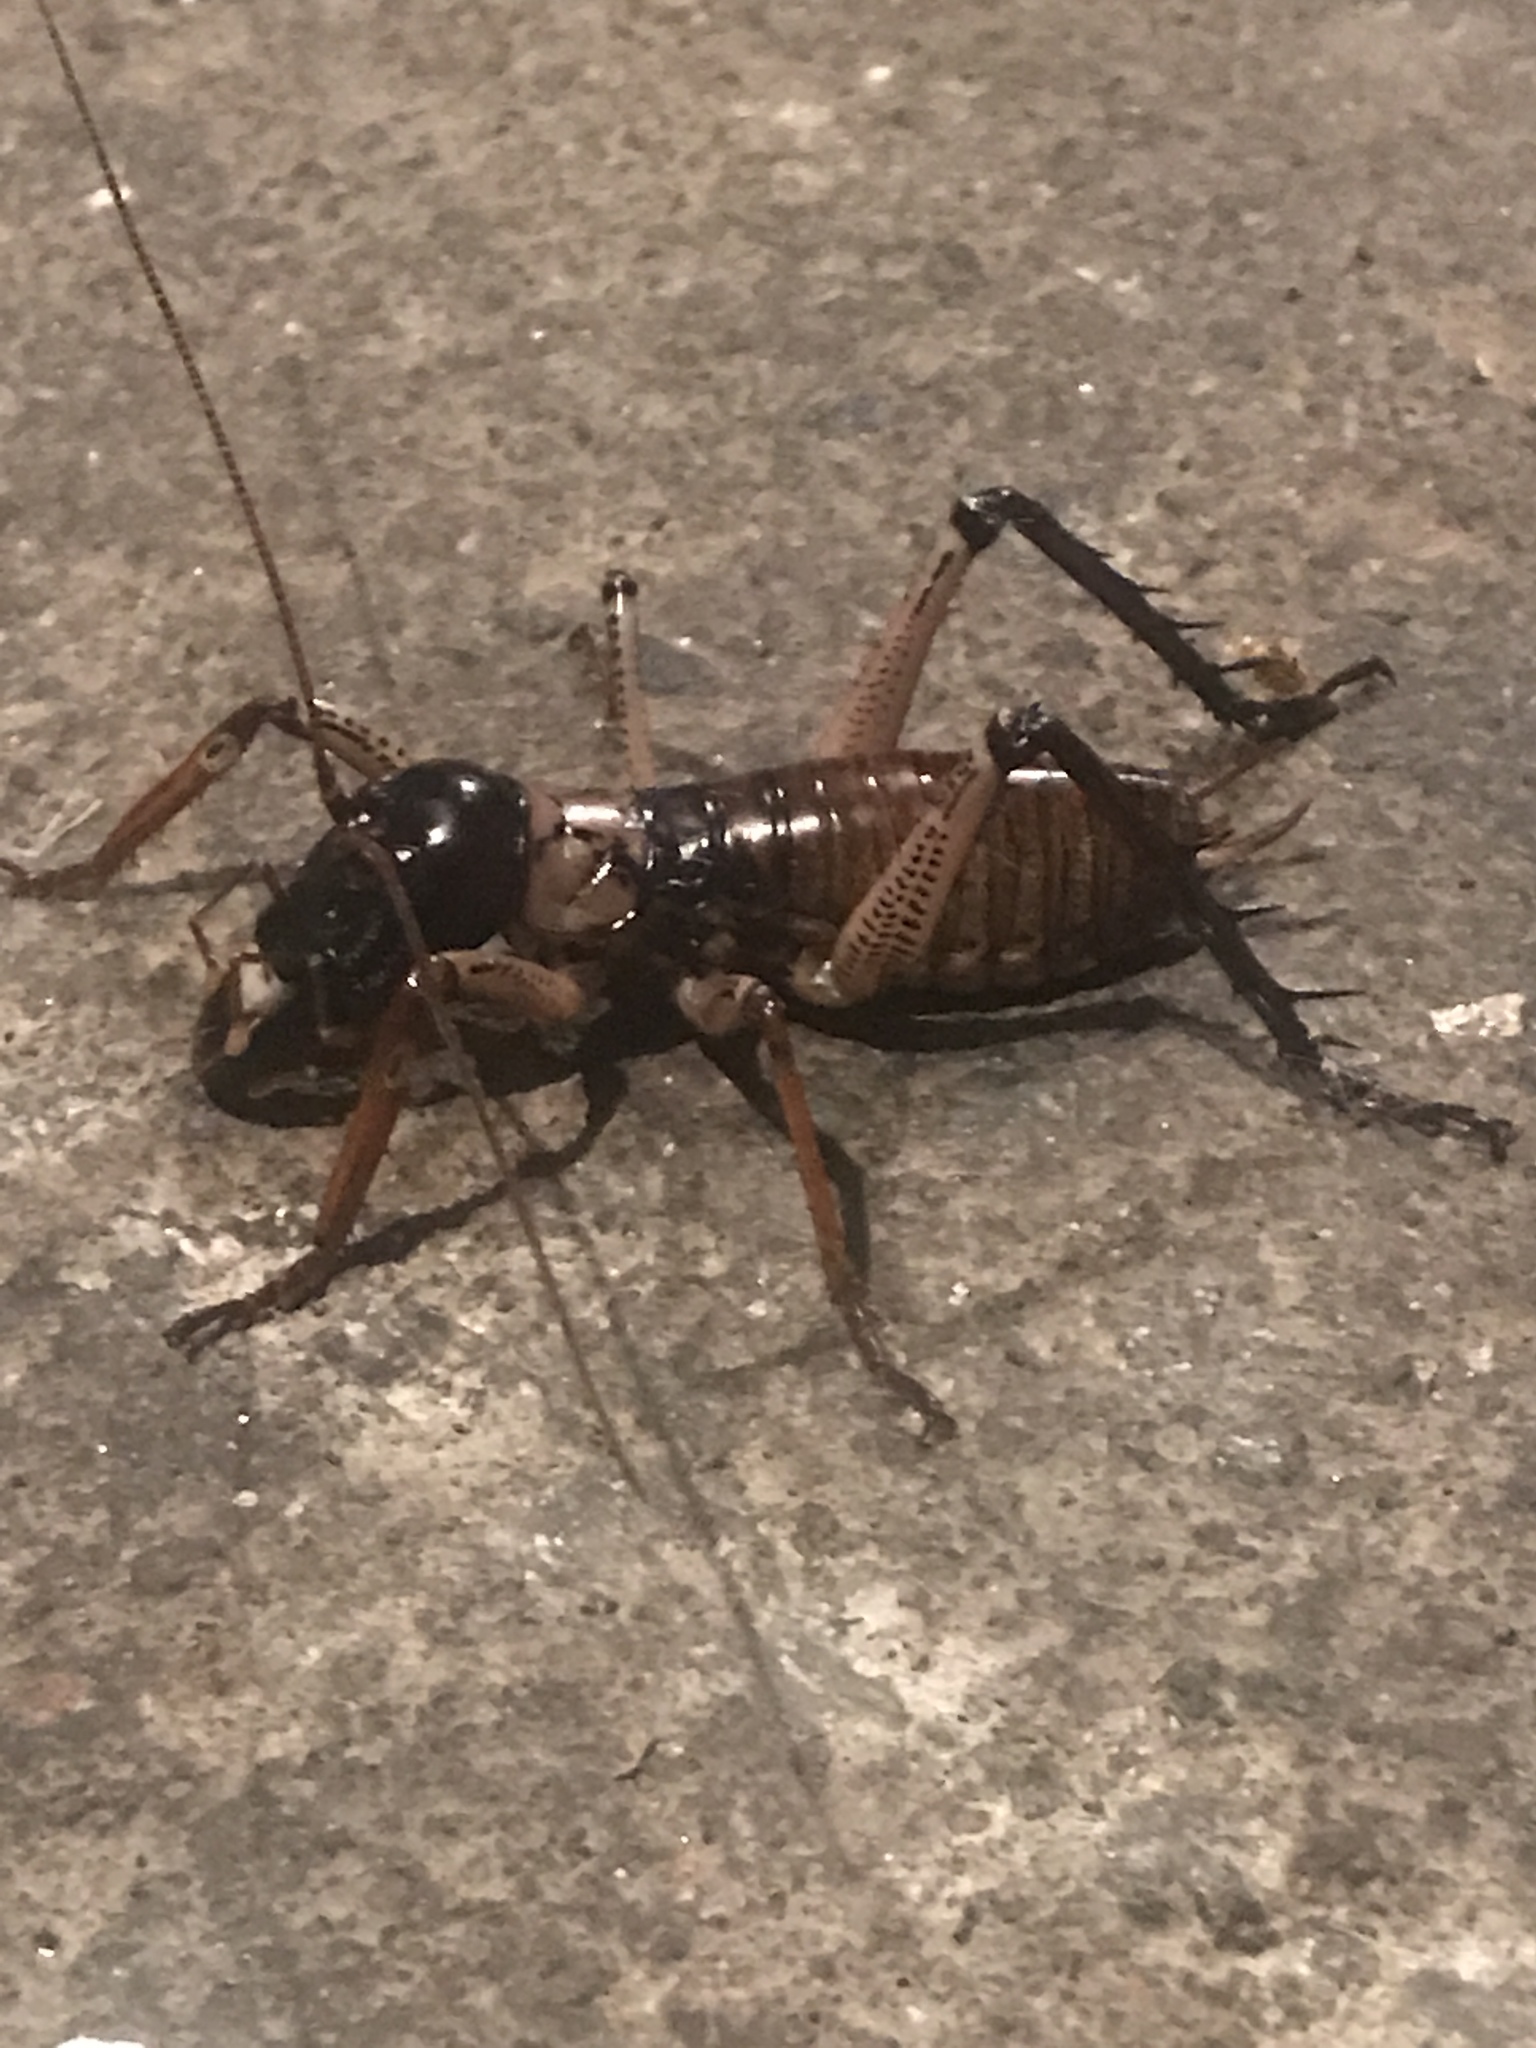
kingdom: Animalia
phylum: Arthropoda
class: Insecta
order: Orthoptera
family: Anostostomatidae
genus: Hemideina
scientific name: Hemideina thoracica
